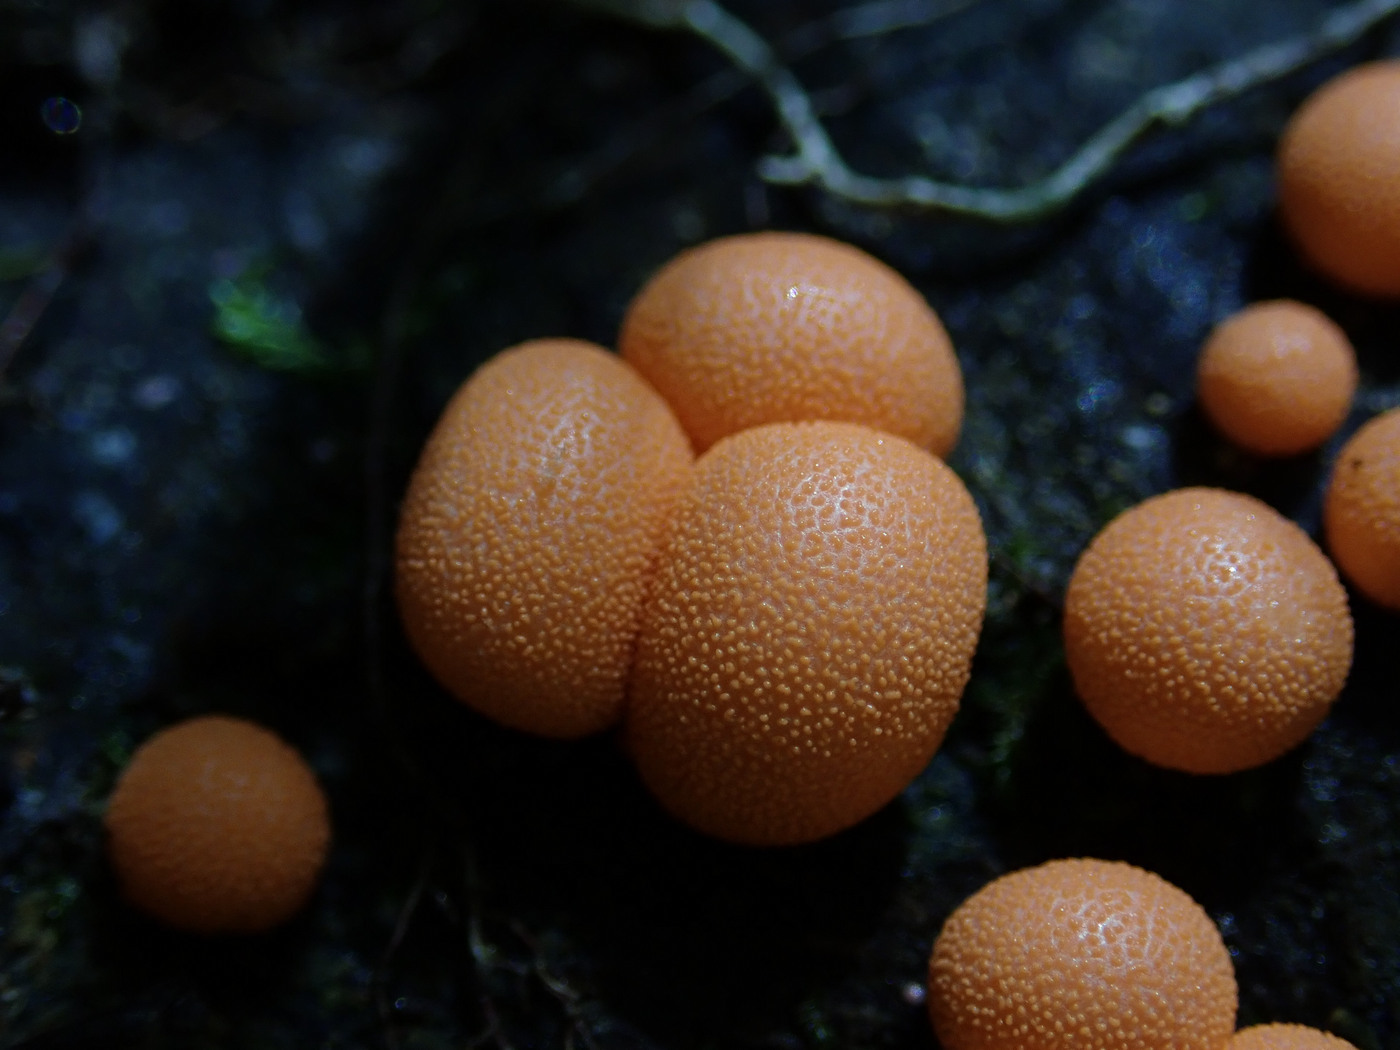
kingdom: Protozoa
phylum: Mycetozoa
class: Myxomycetes
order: Cribrariales
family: Tubiferaceae
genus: Lycogala
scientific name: Lycogala epidendrum
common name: Wolf's milk
